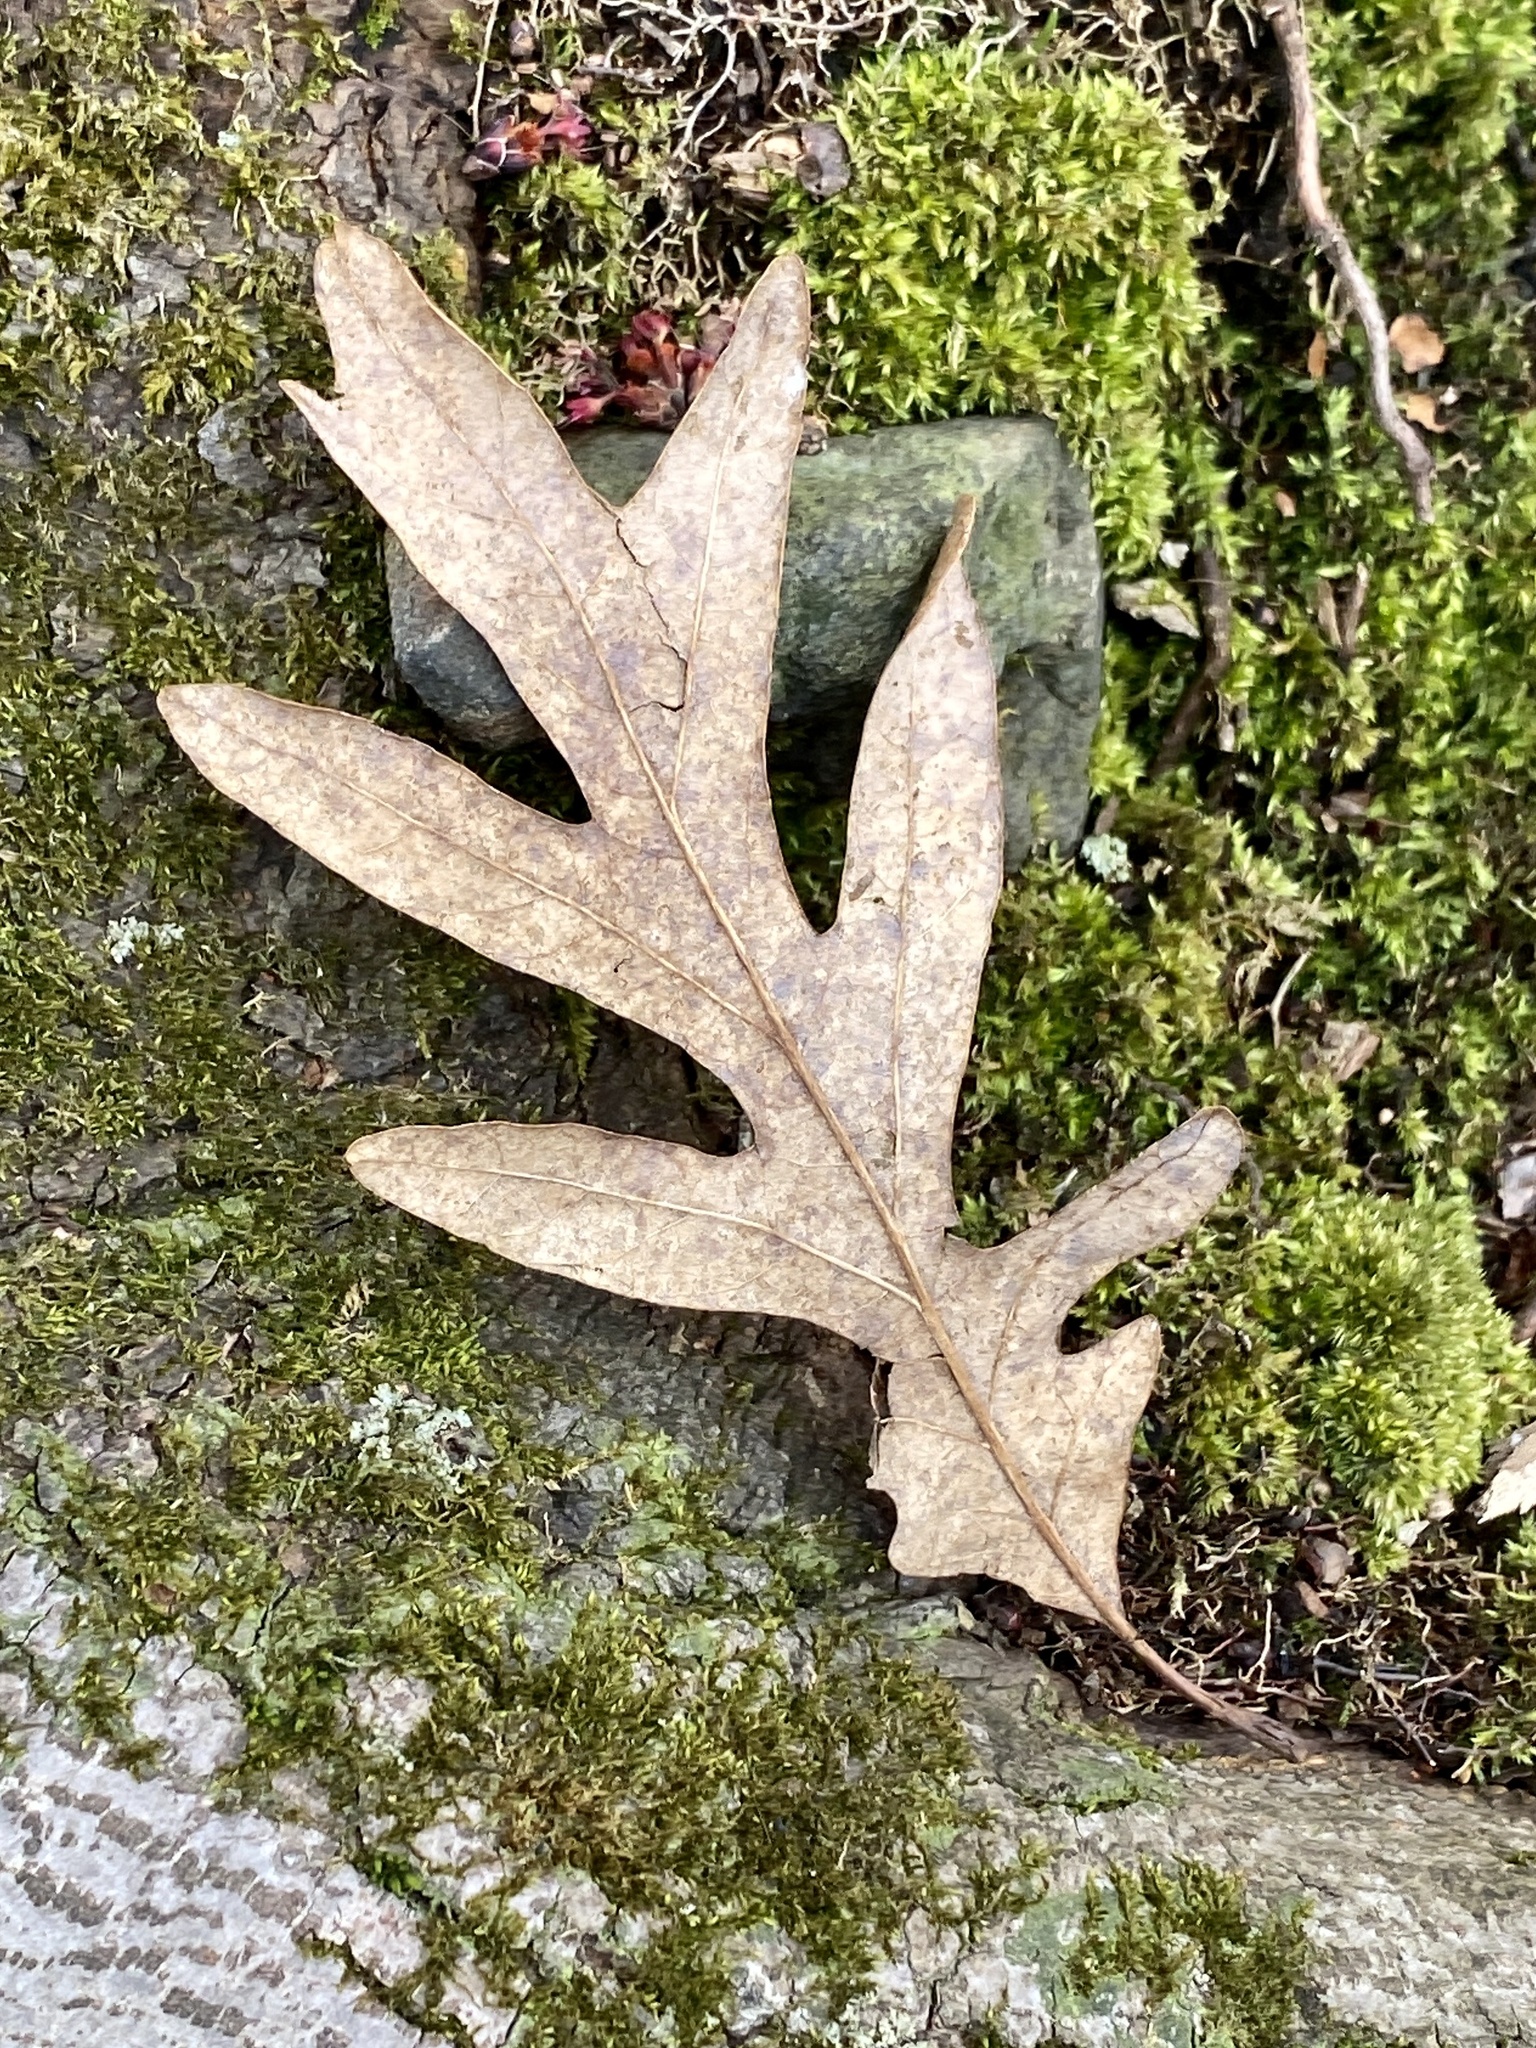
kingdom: Plantae
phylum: Tracheophyta
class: Magnoliopsida
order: Fagales
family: Fagaceae
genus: Quercus
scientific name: Quercus alba
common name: White oak
